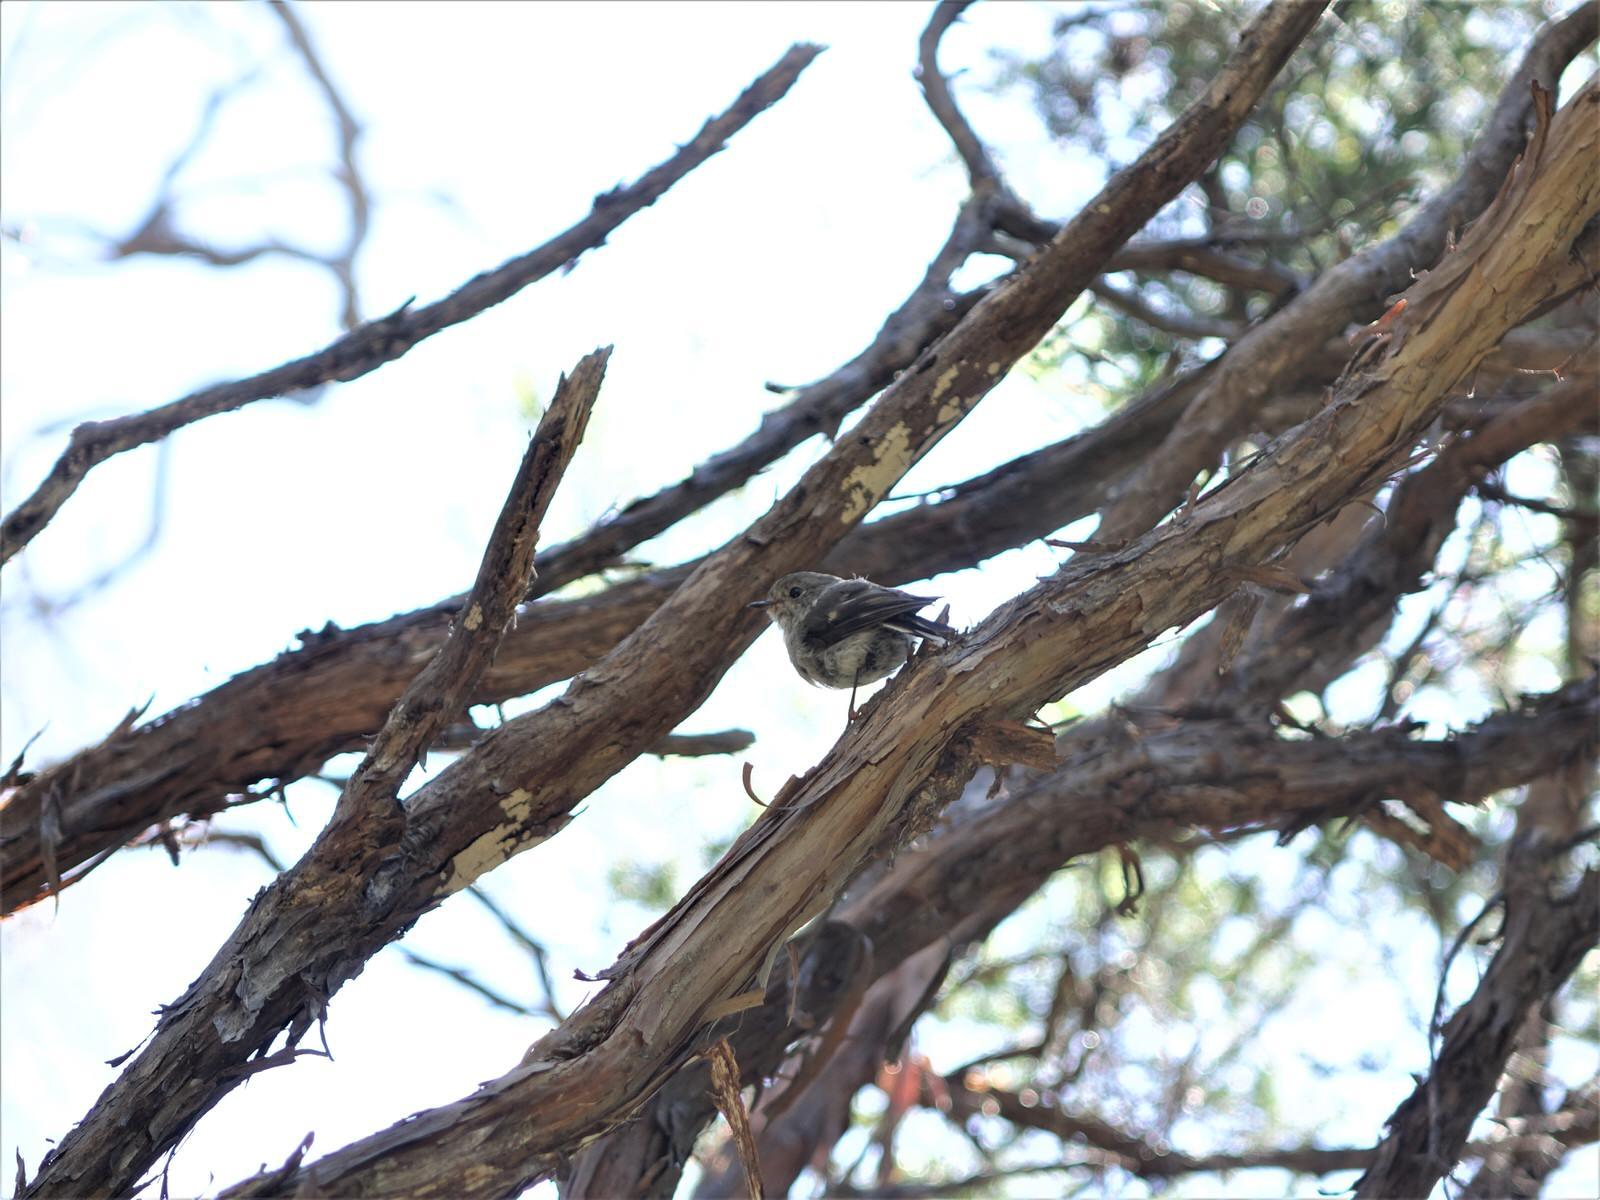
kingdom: Animalia
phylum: Chordata
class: Aves
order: Passeriformes
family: Petroicidae
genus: Petroica
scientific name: Petroica macrocephala
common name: Tomtit
